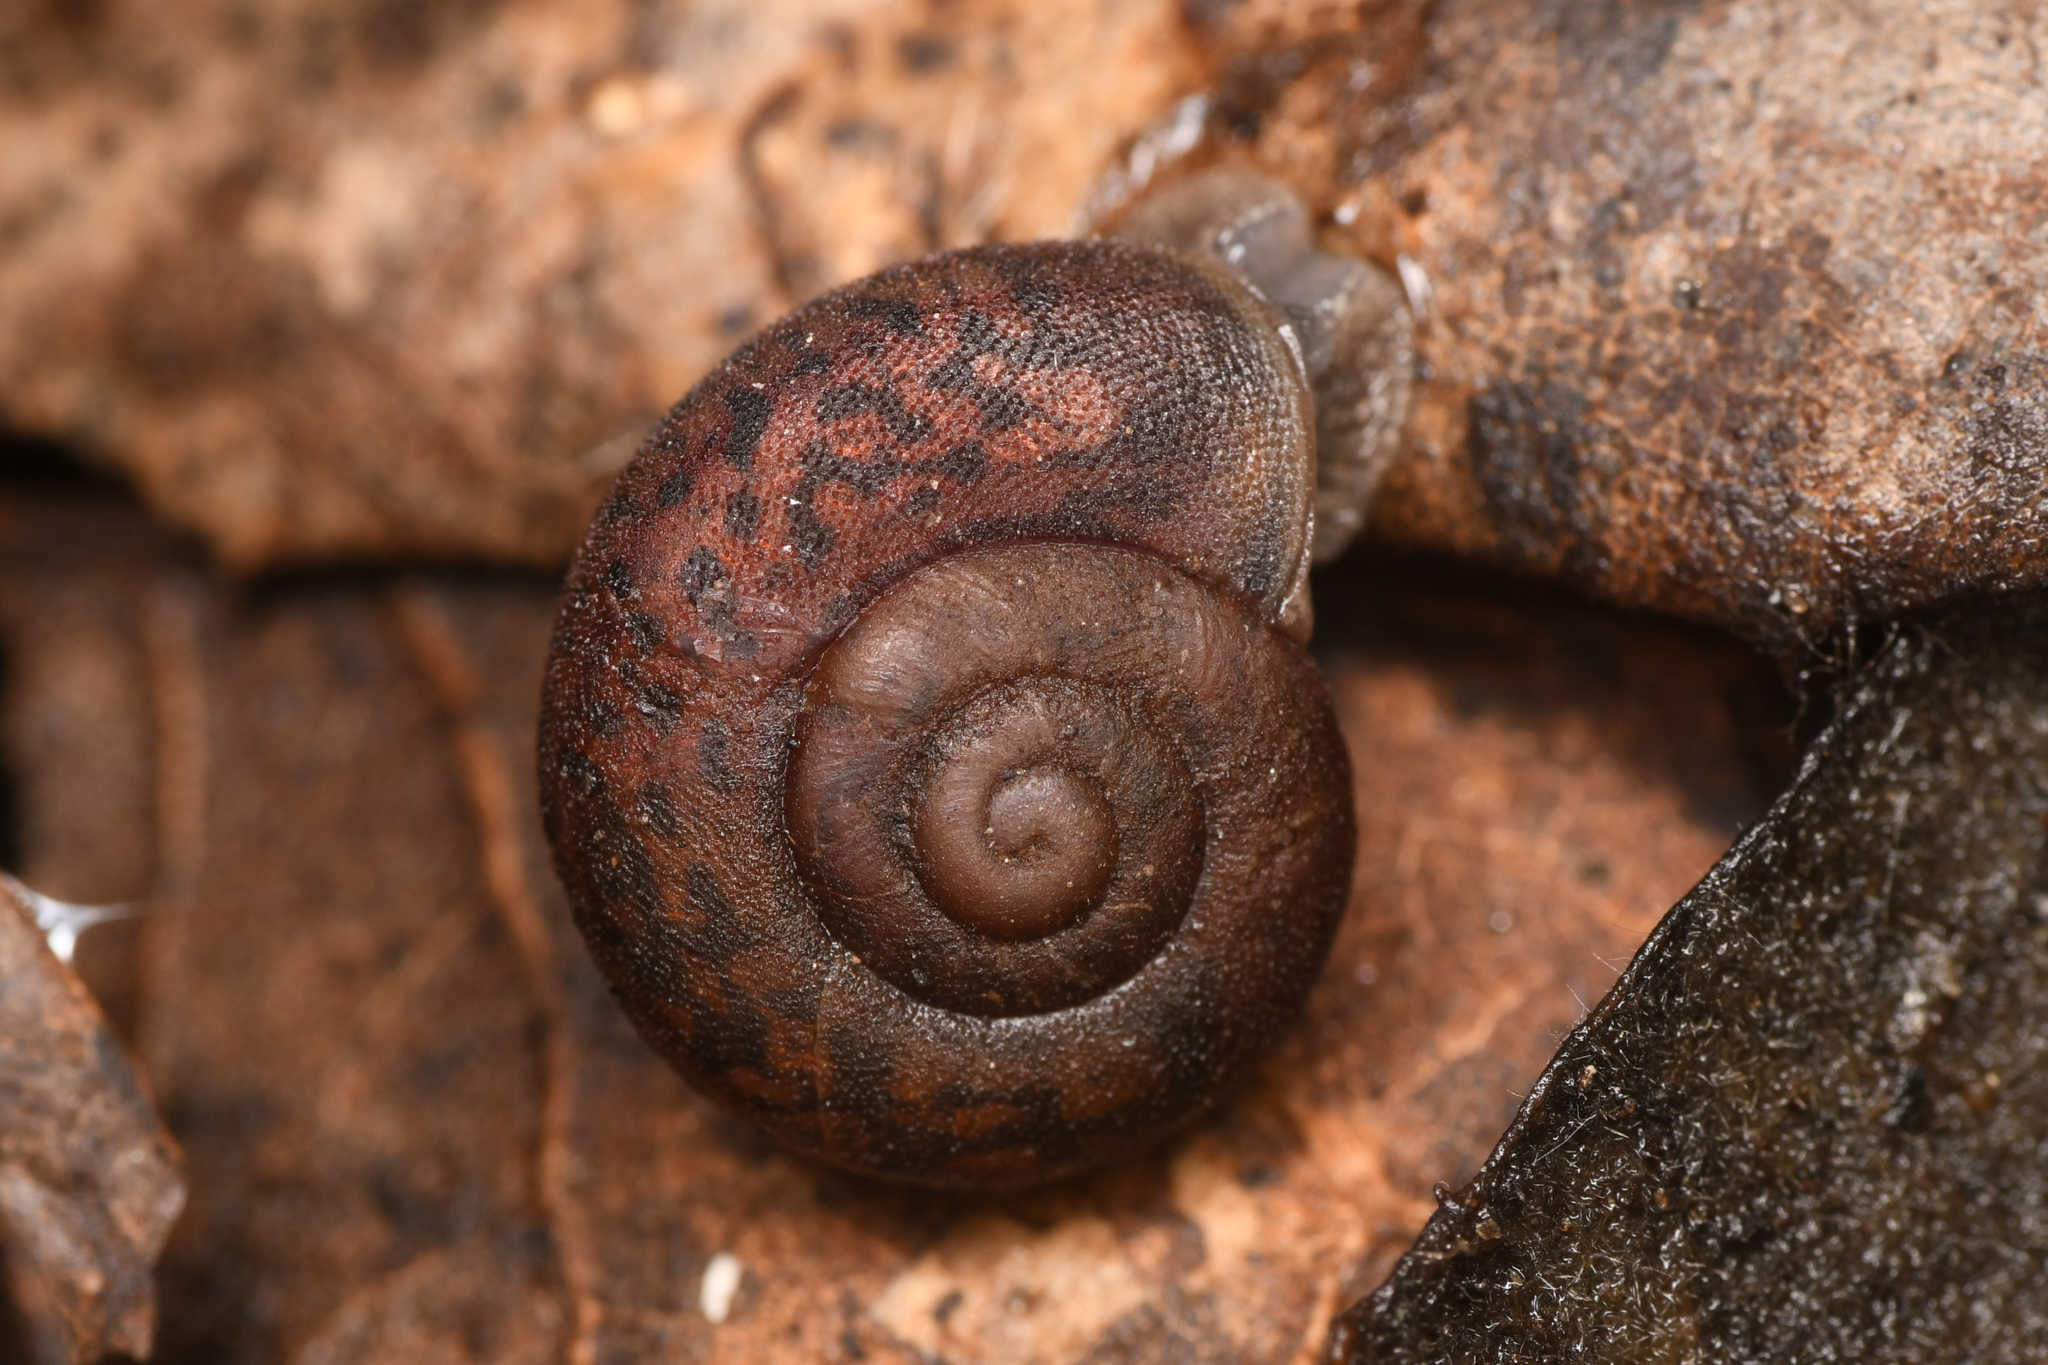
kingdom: Animalia
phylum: Mollusca
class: Gastropoda
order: Stylommatophora
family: Xanthonychidae
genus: Helminthoglypta
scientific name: Helminthoglypta montezuma
